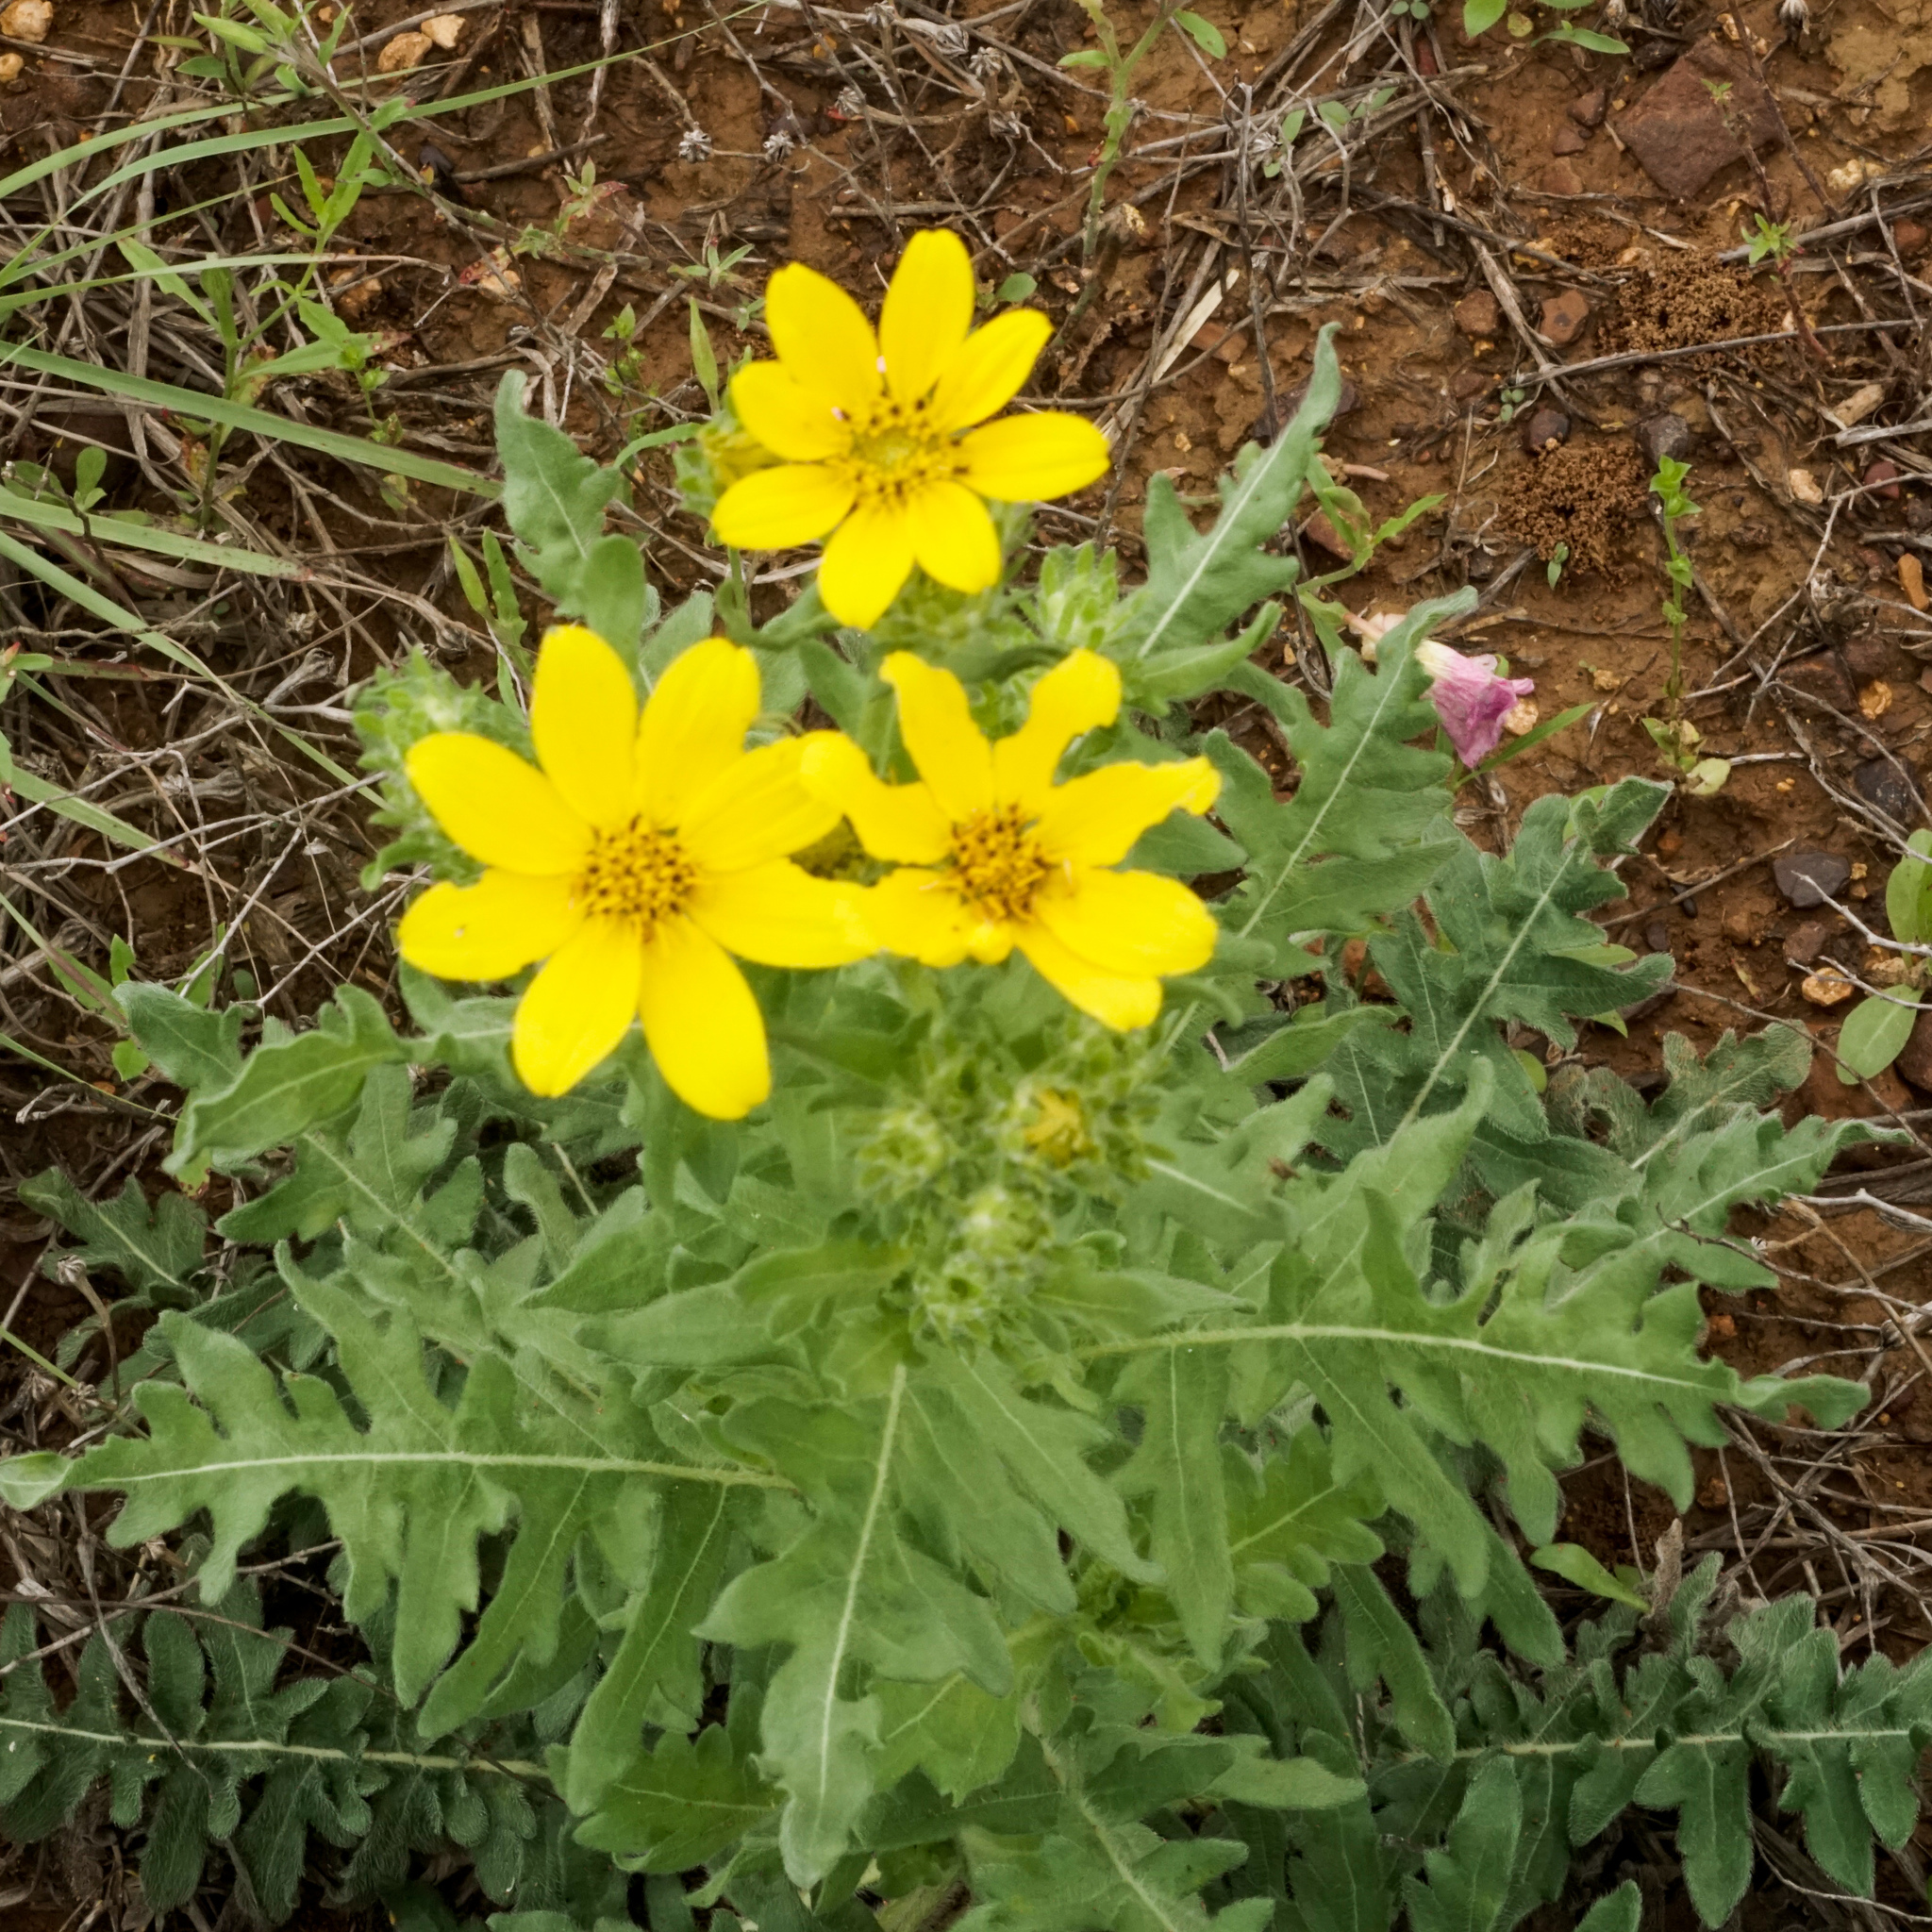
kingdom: Plantae
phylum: Tracheophyta
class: Magnoliopsida
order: Asterales
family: Asteraceae
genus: Engelmannia
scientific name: Engelmannia peristenia
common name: Engelmann's daisy
